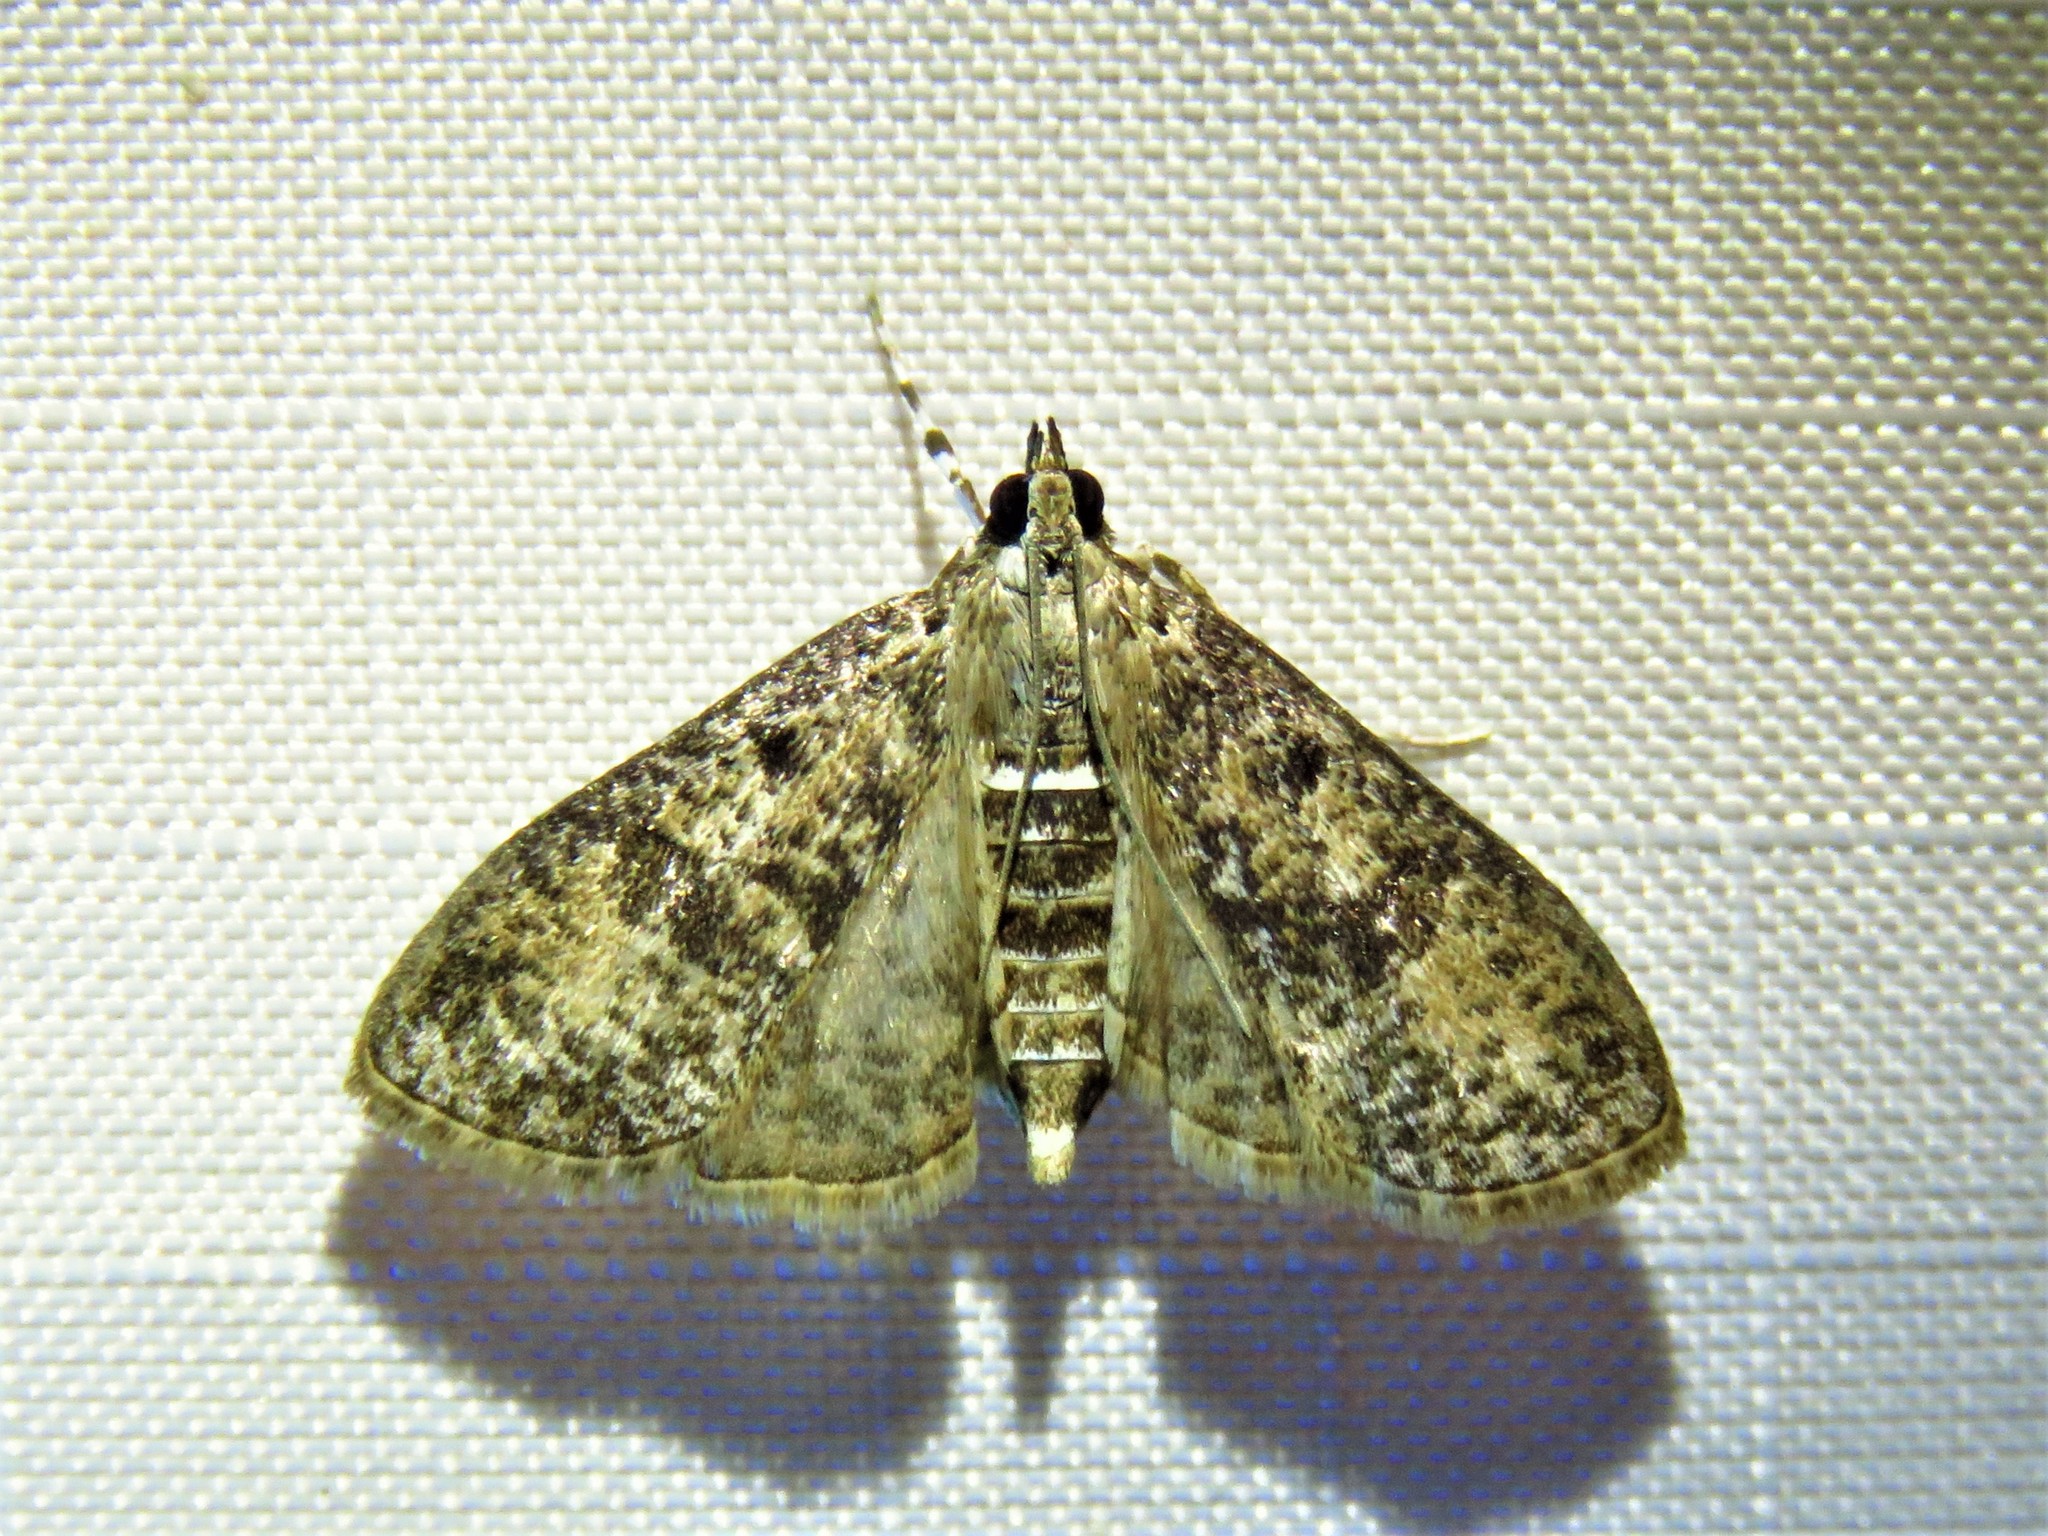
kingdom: Animalia
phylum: Arthropoda
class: Insecta
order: Lepidoptera
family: Crambidae
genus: Palpita
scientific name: Palpita magniferalis
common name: Splendid palpita moth
